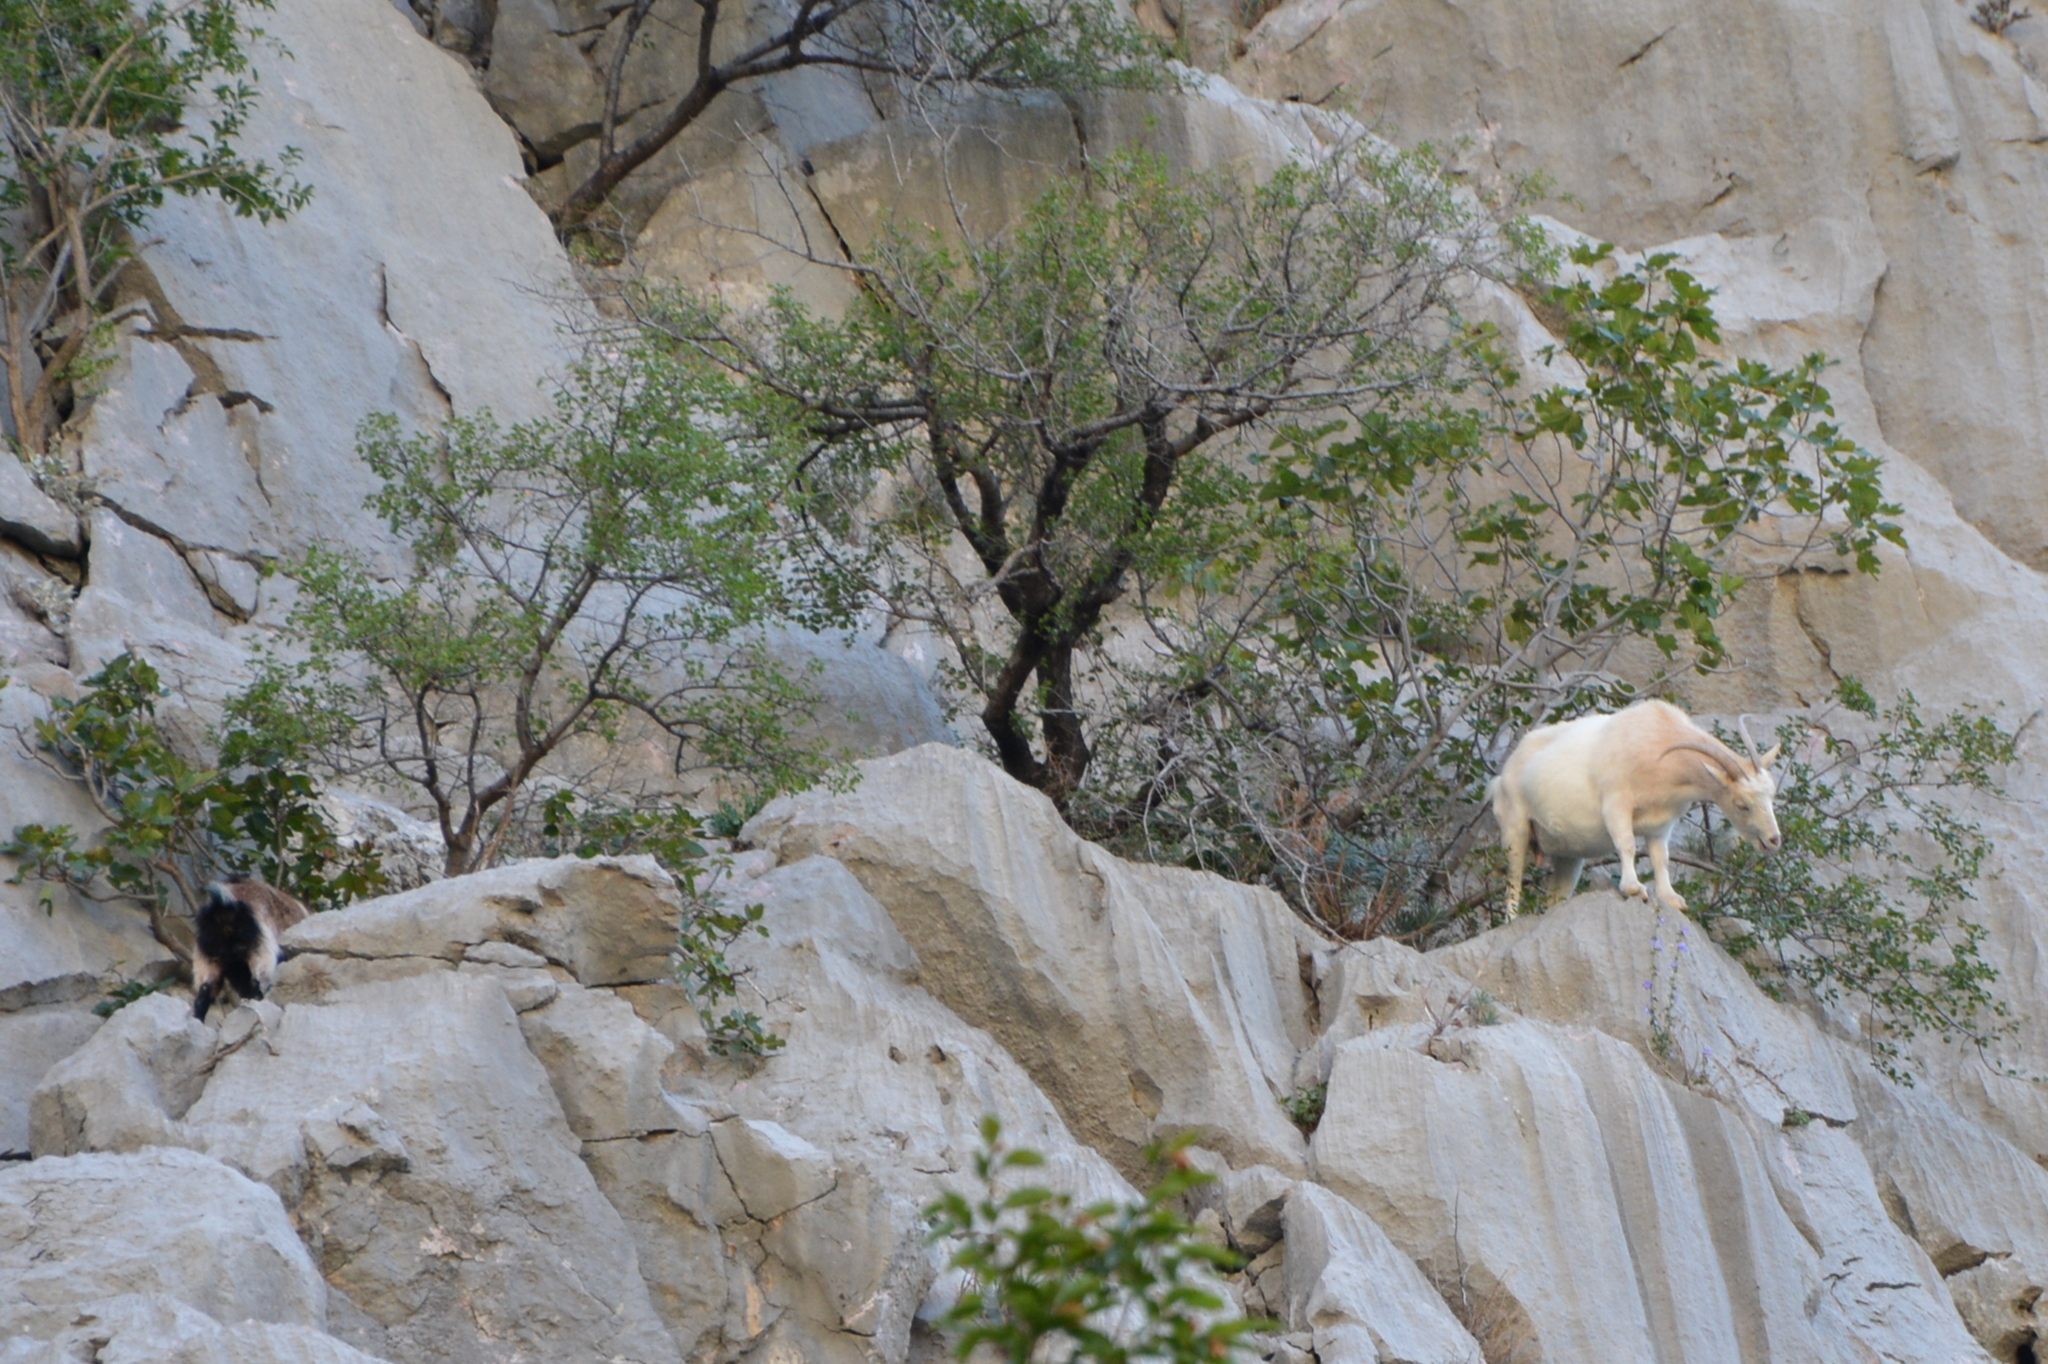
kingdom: Animalia
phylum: Chordata
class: Mammalia
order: Artiodactyla
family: Bovidae
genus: Capra
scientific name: Capra hircus
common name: Domestic goat
